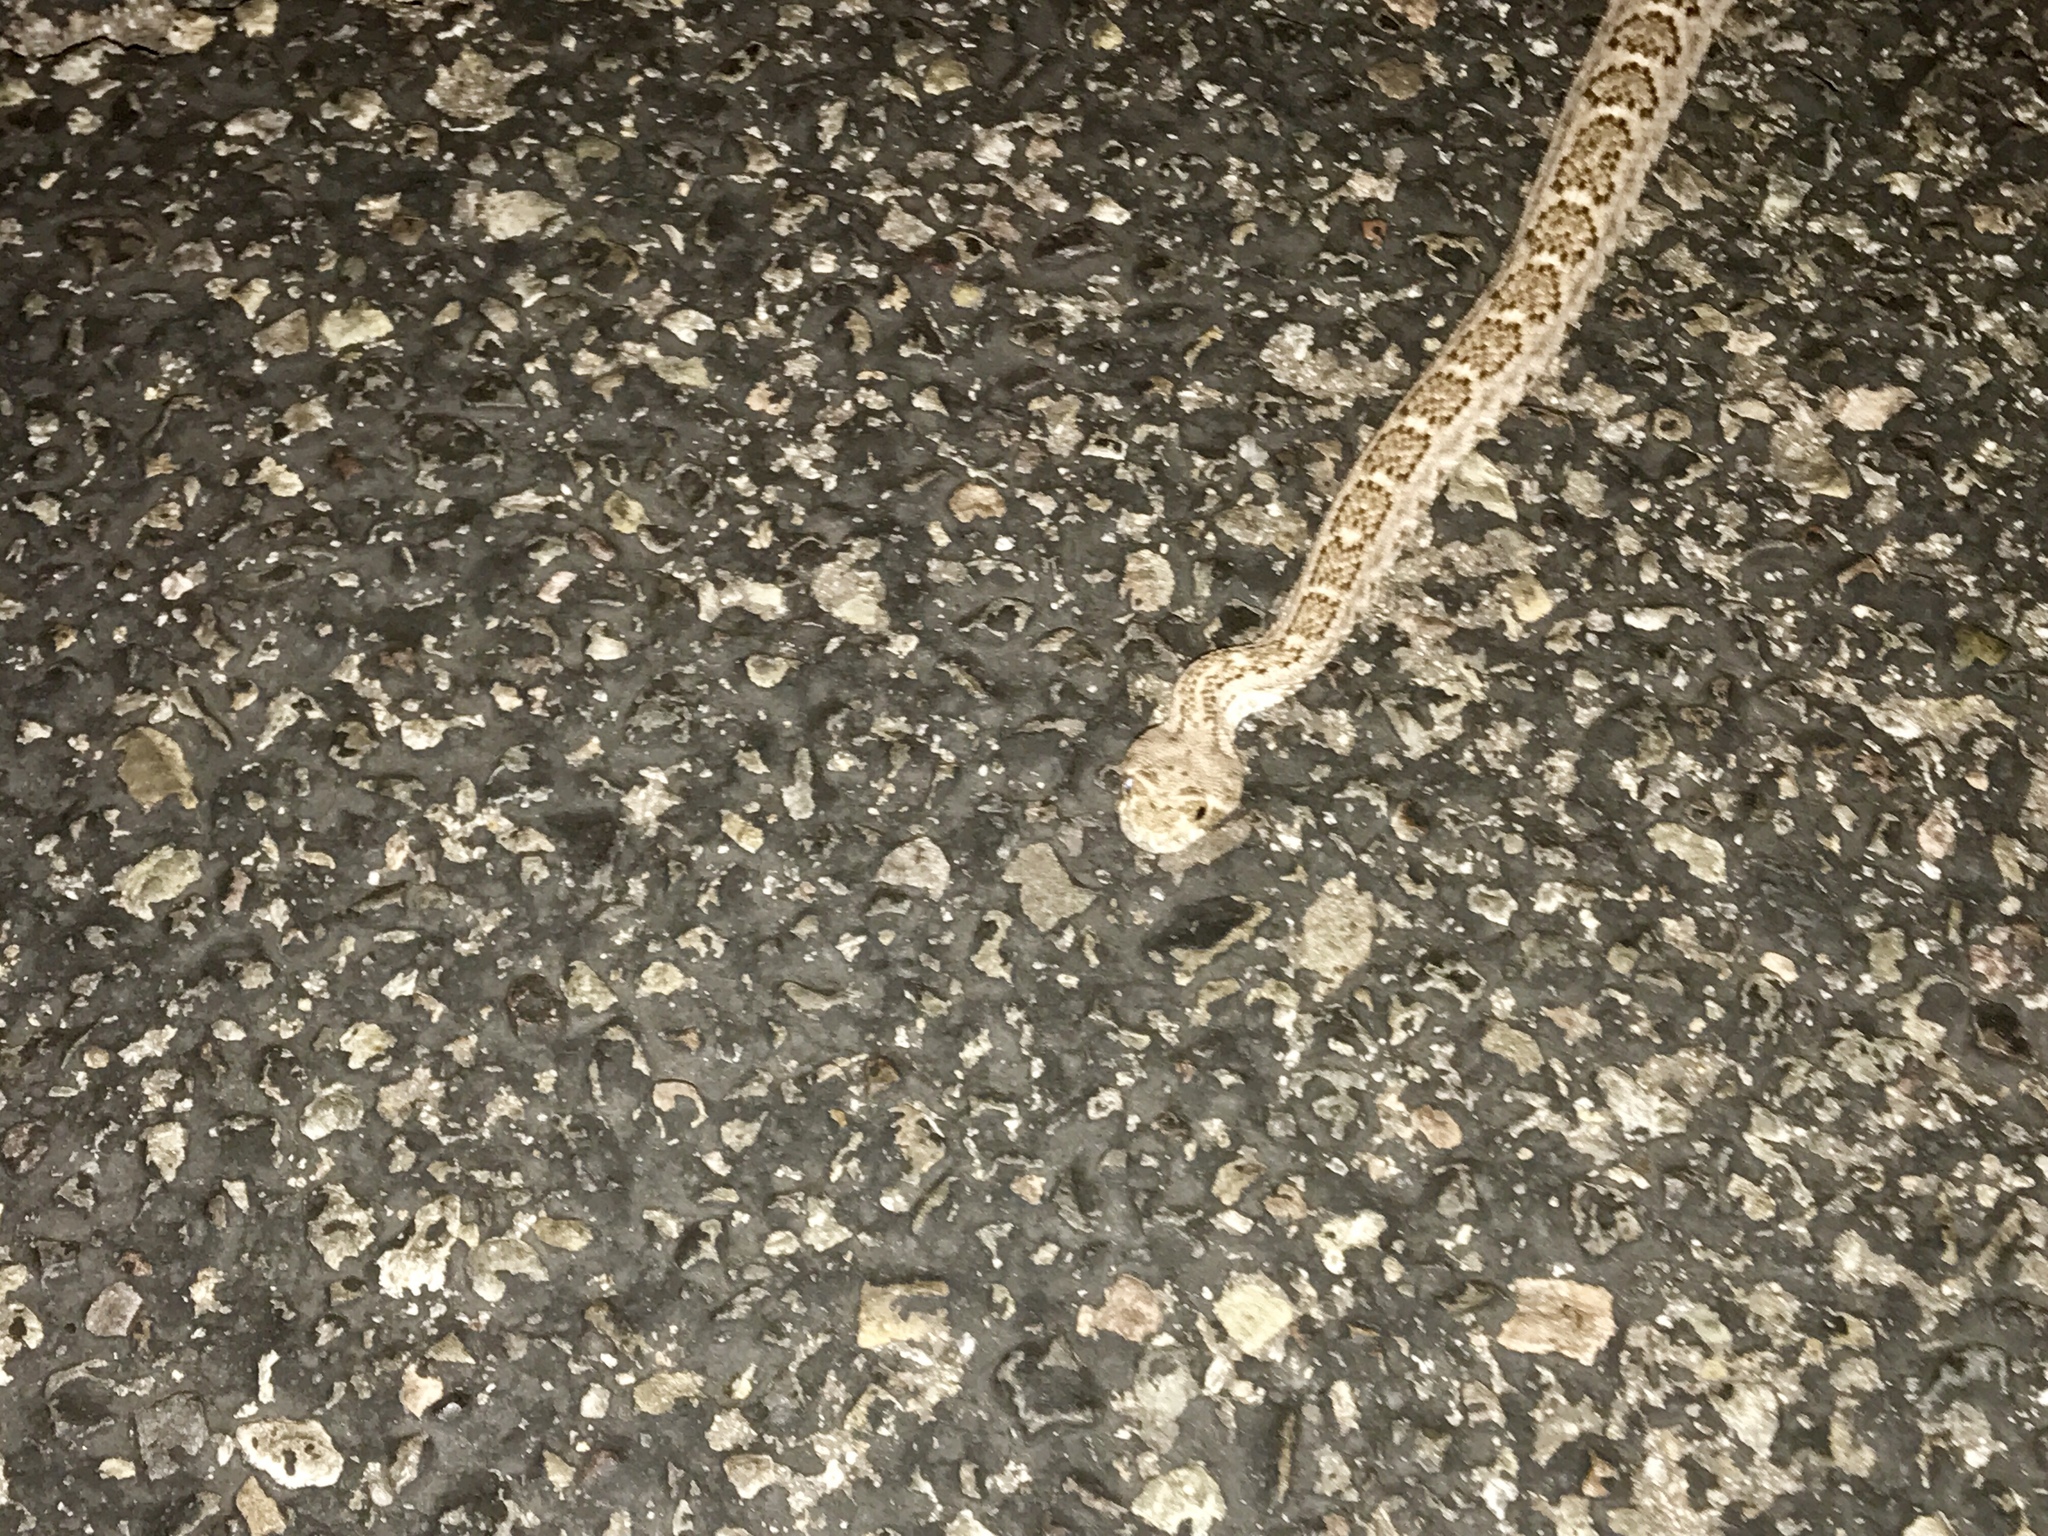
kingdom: Animalia
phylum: Chordata
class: Squamata
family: Viperidae
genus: Crotalus
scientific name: Crotalus atrox
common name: Western diamond-backed rattlesnake
